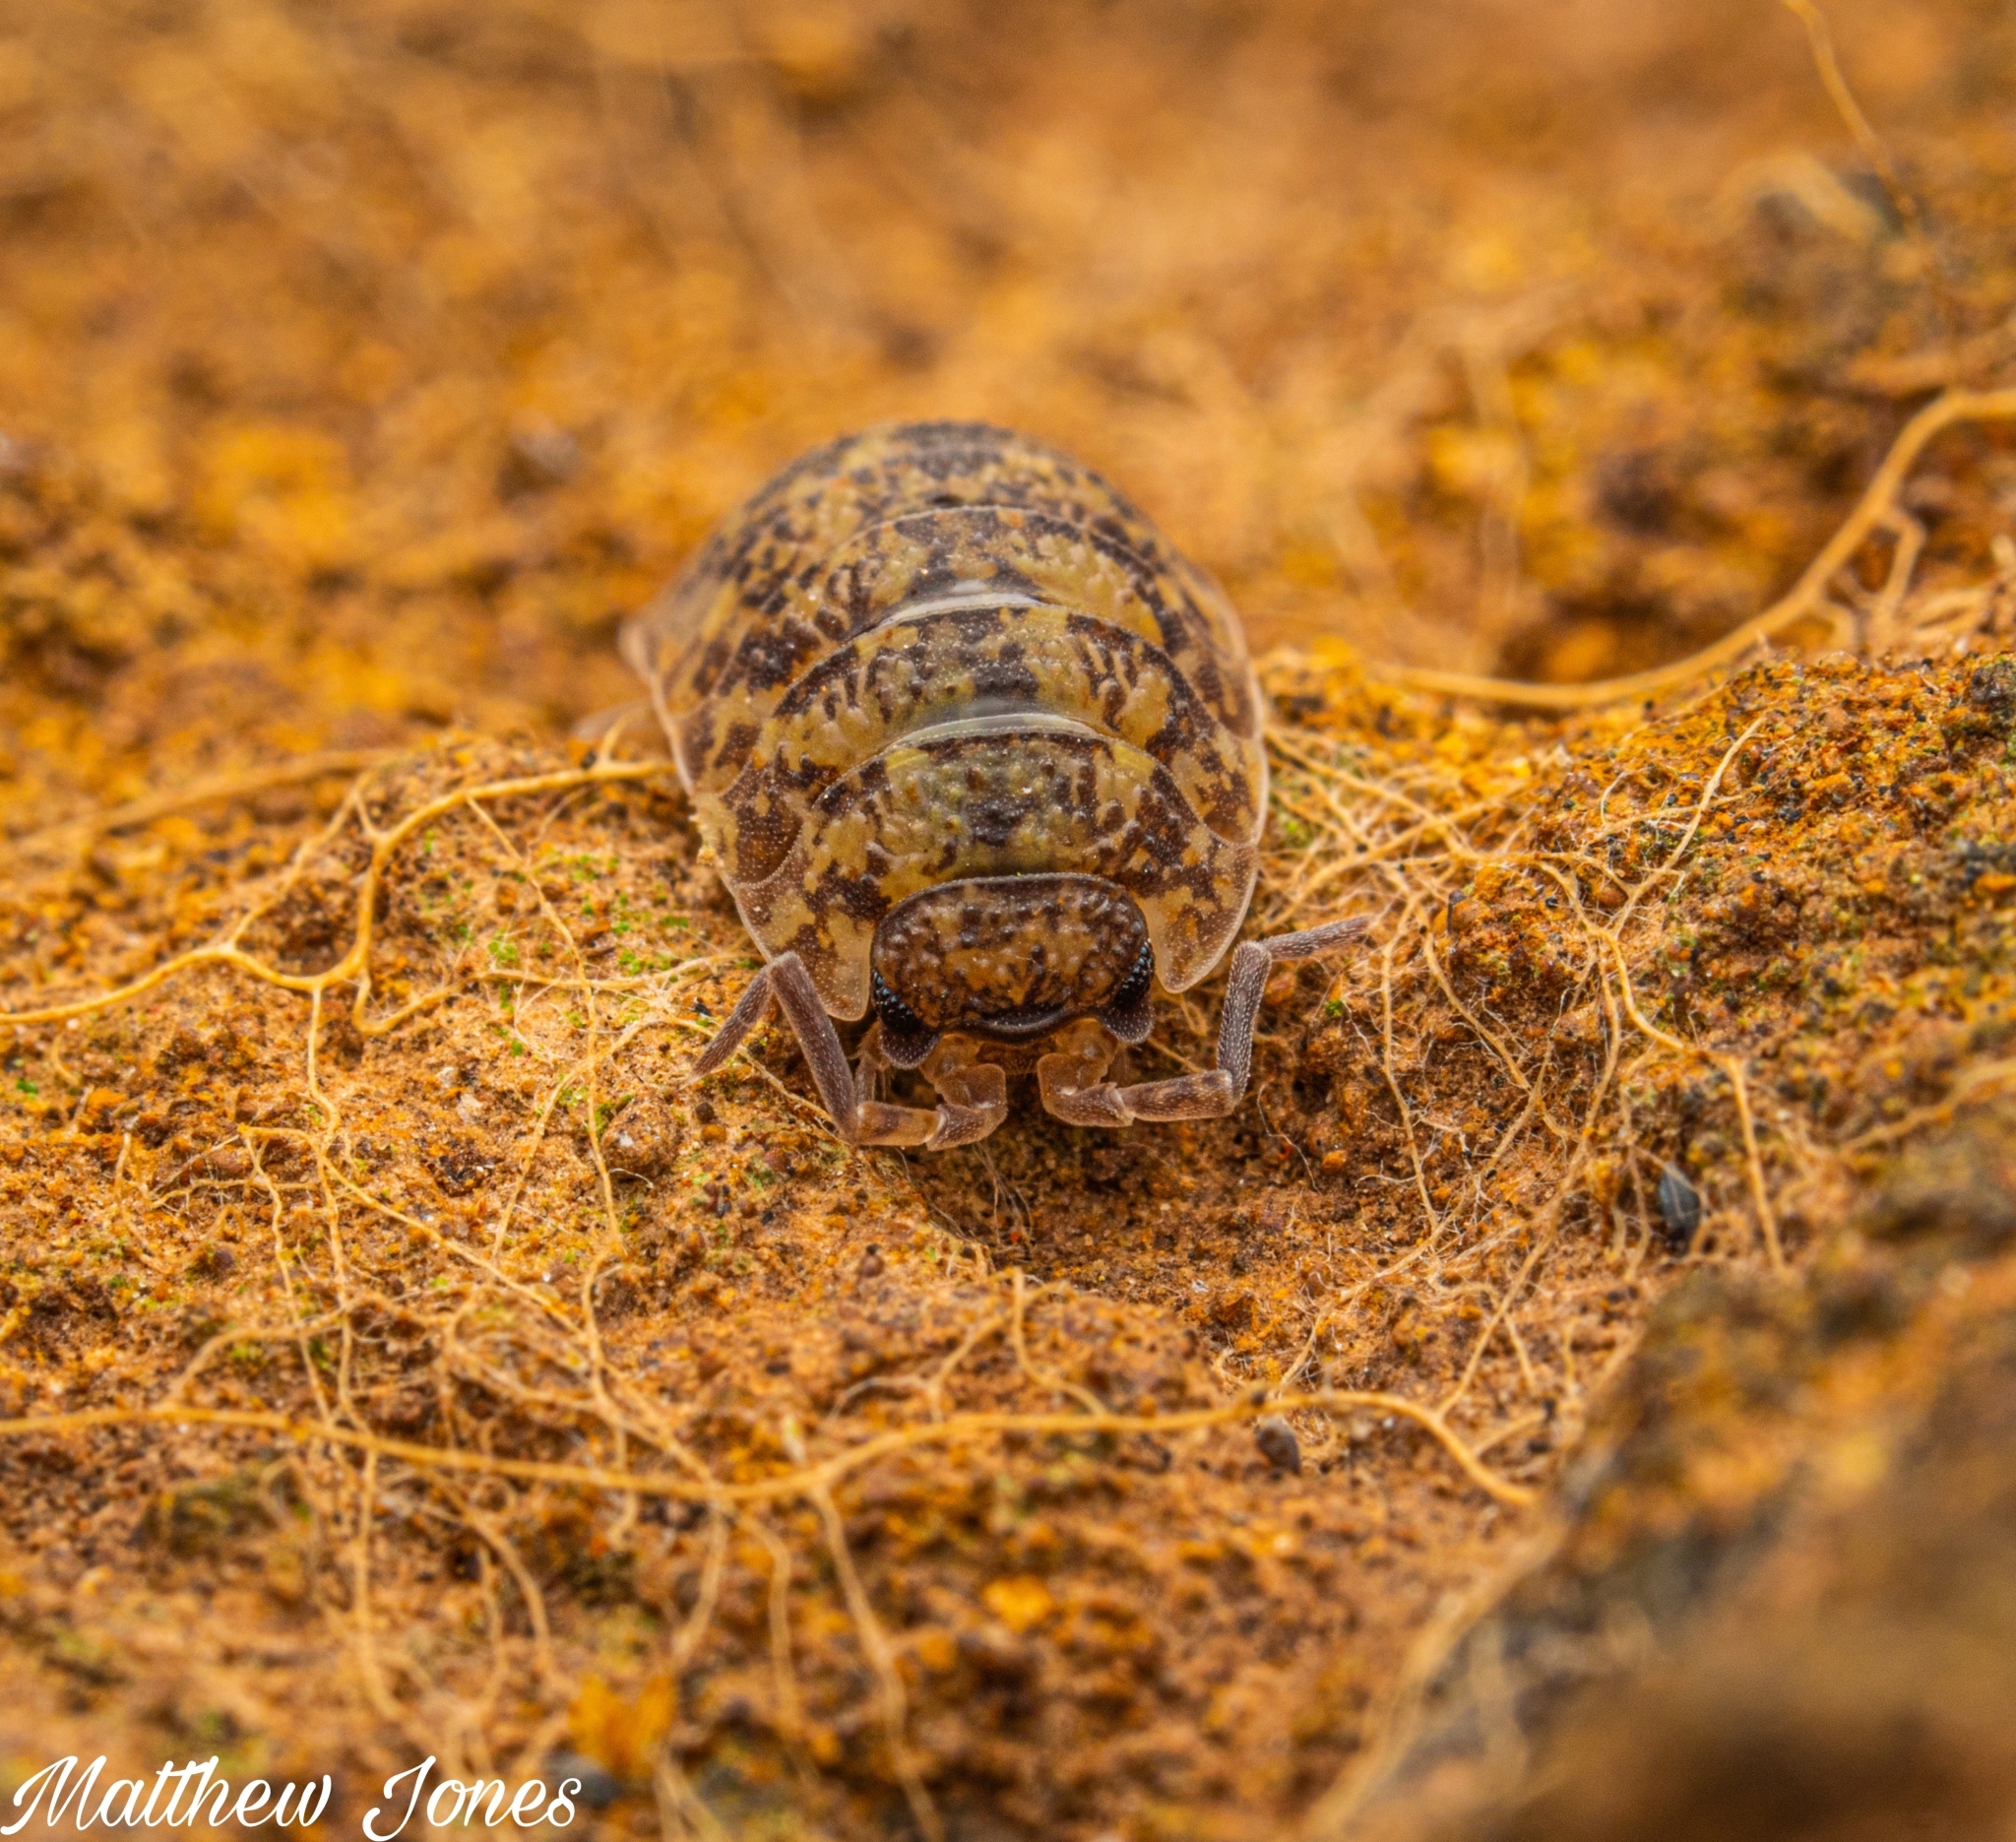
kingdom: Animalia
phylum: Arthropoda
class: Malacostraca
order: Isopoda
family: Porcellionidae
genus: Porcellio
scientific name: Porcellio scaber
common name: Common rough woodlouse
